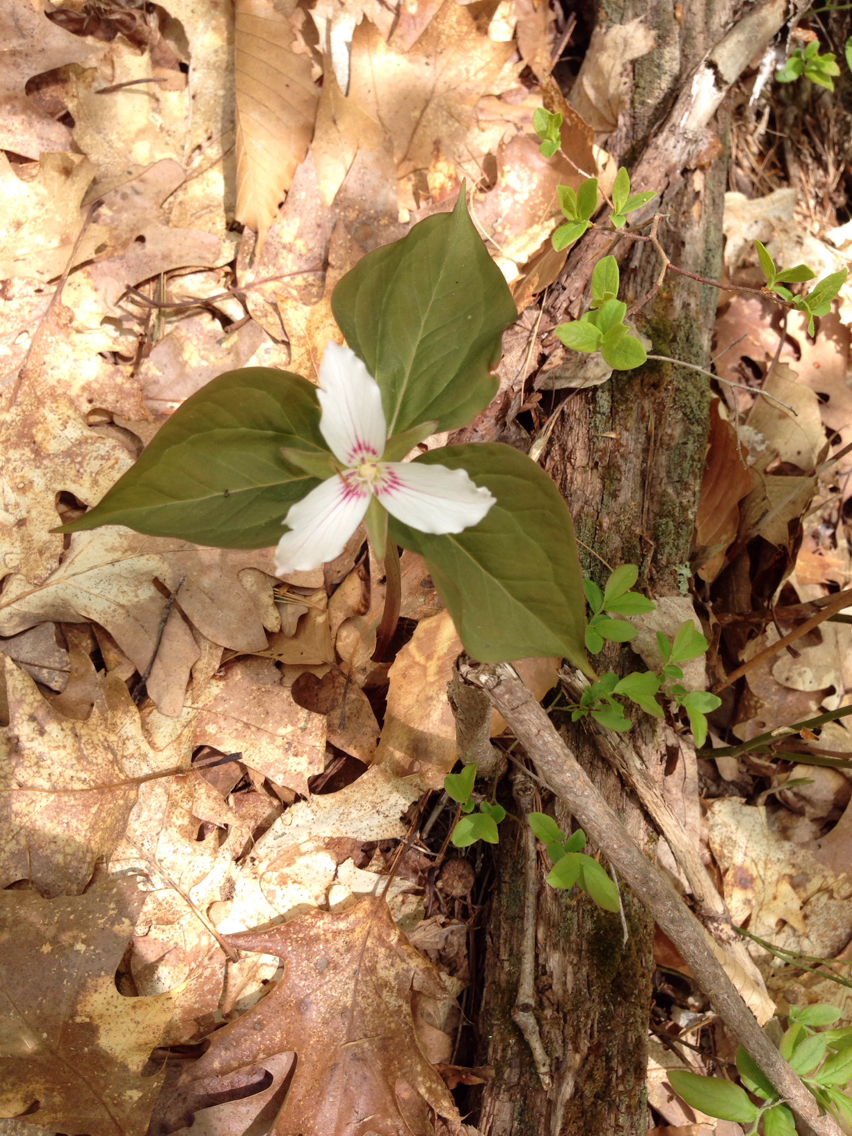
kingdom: Plantae
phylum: Tracheophyta
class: Liliopsida
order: Liliales
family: Melanthiaceae
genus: Trillium
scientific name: Trillium undulatum
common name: Paint trillium
